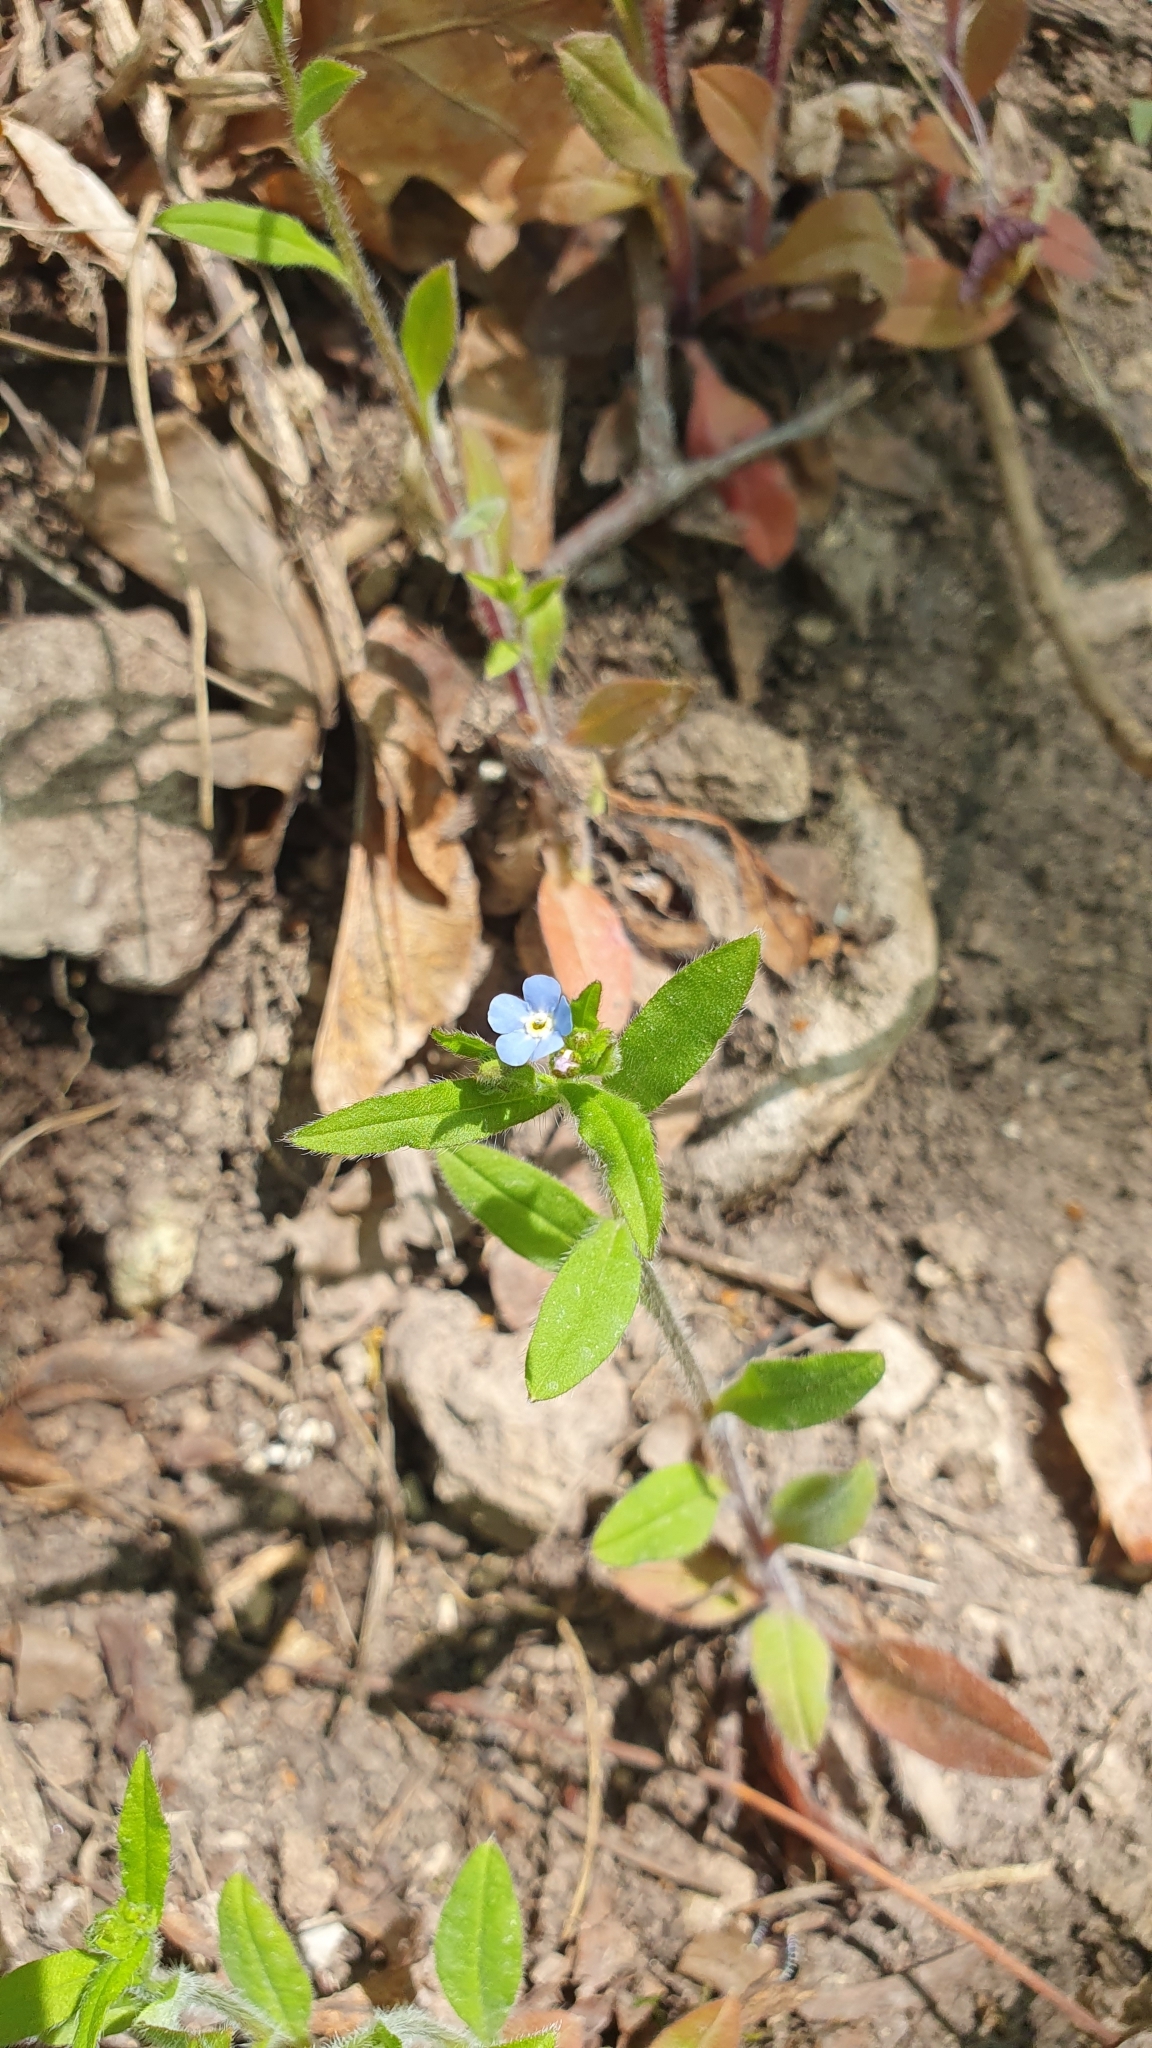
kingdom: Plantae
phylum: Tracheophyta
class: Magnoliopsida
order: Boraginales
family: Boraginaceae
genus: Hackelia
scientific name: Hackelia deflexa
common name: Nodding stickseed
